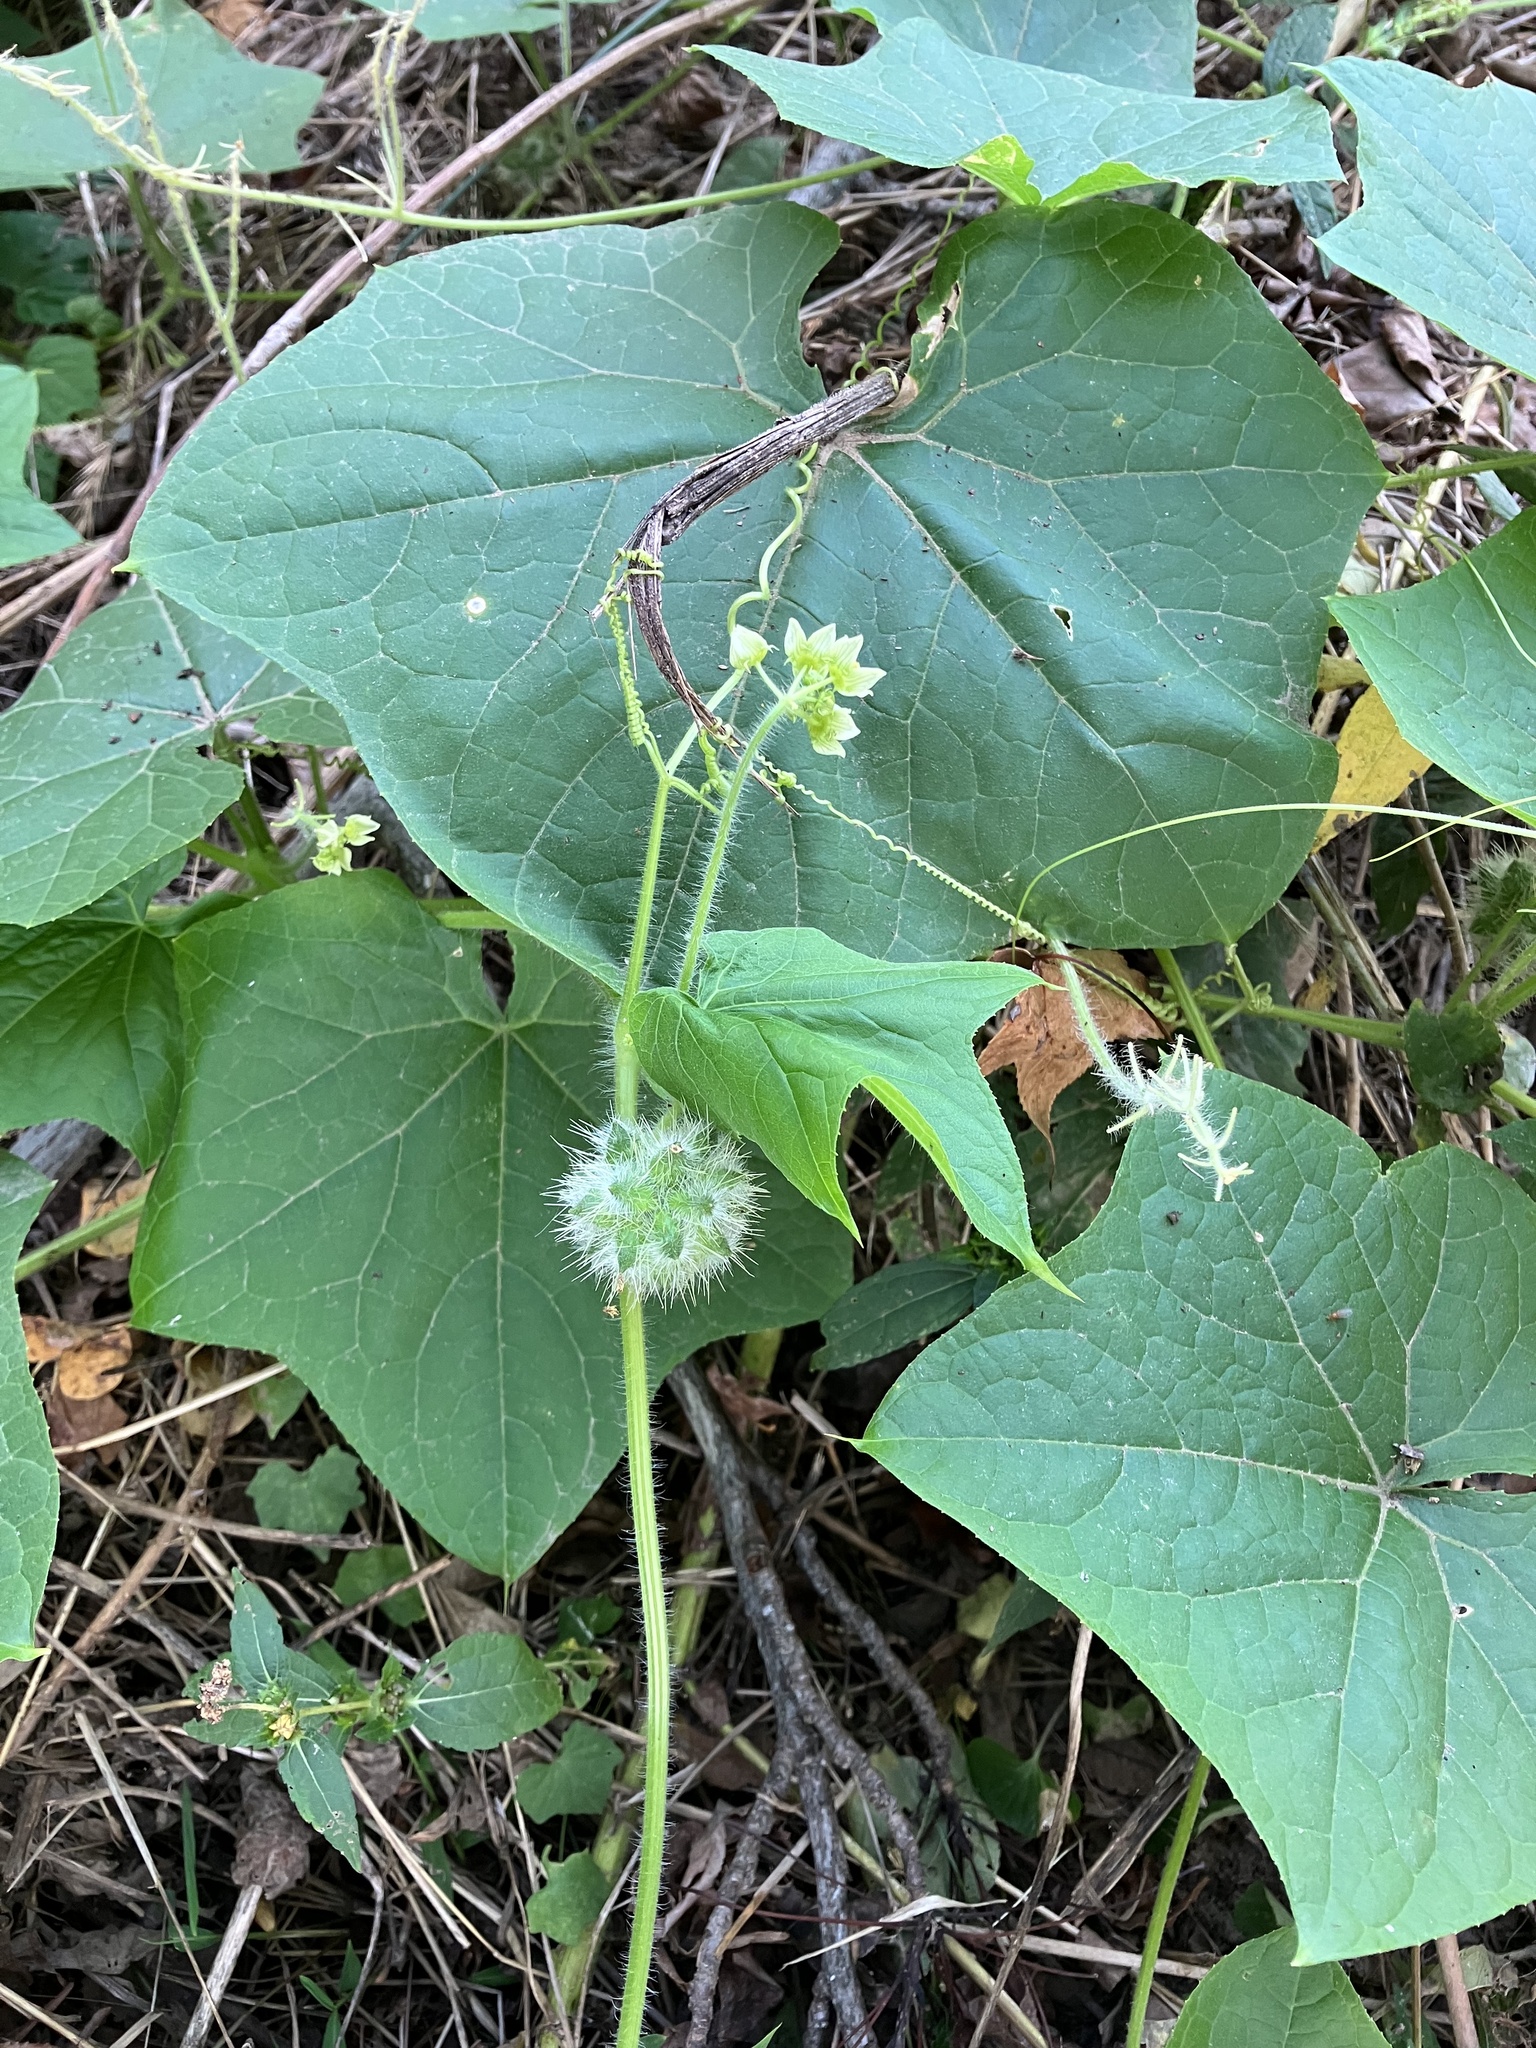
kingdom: Plantae
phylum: Tracheophyta
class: Magnoliopsida
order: Cucurbitales
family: Cucurbitaceae
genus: Sicyos
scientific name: Sicyos angulatus
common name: Angled burr cucumber
